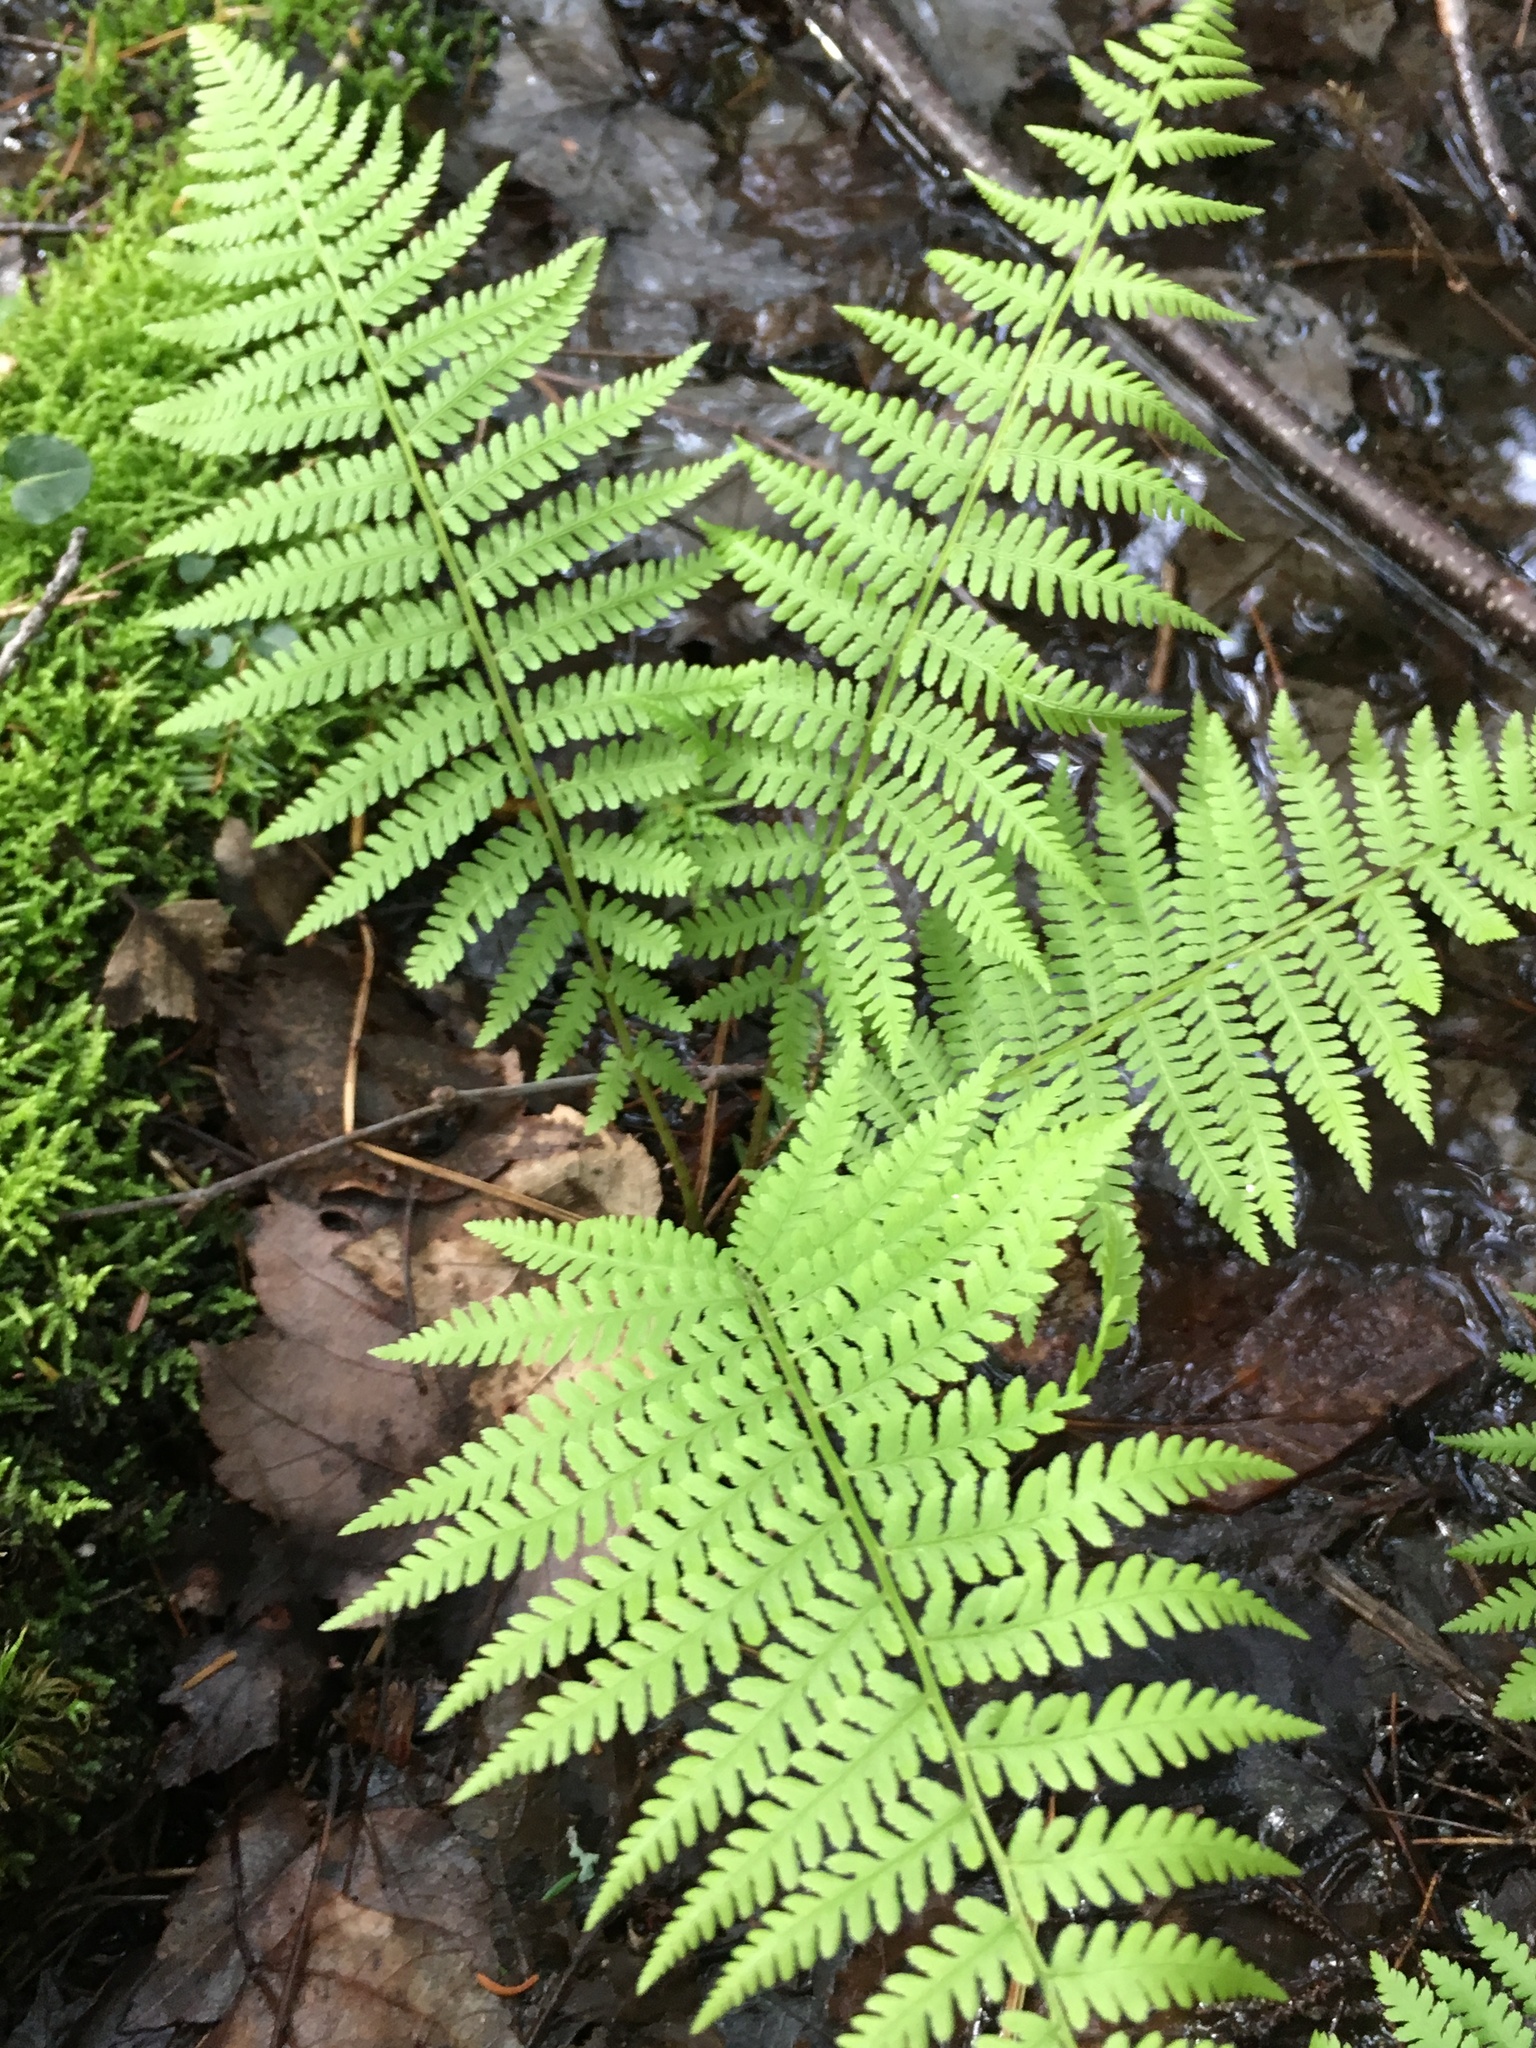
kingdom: Plantae
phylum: Tracheophyta
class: Polypodiopsida
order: Polypodiales
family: Athyriaceae
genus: Athyrium
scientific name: Athyrium angustum
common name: Northern lady fern
